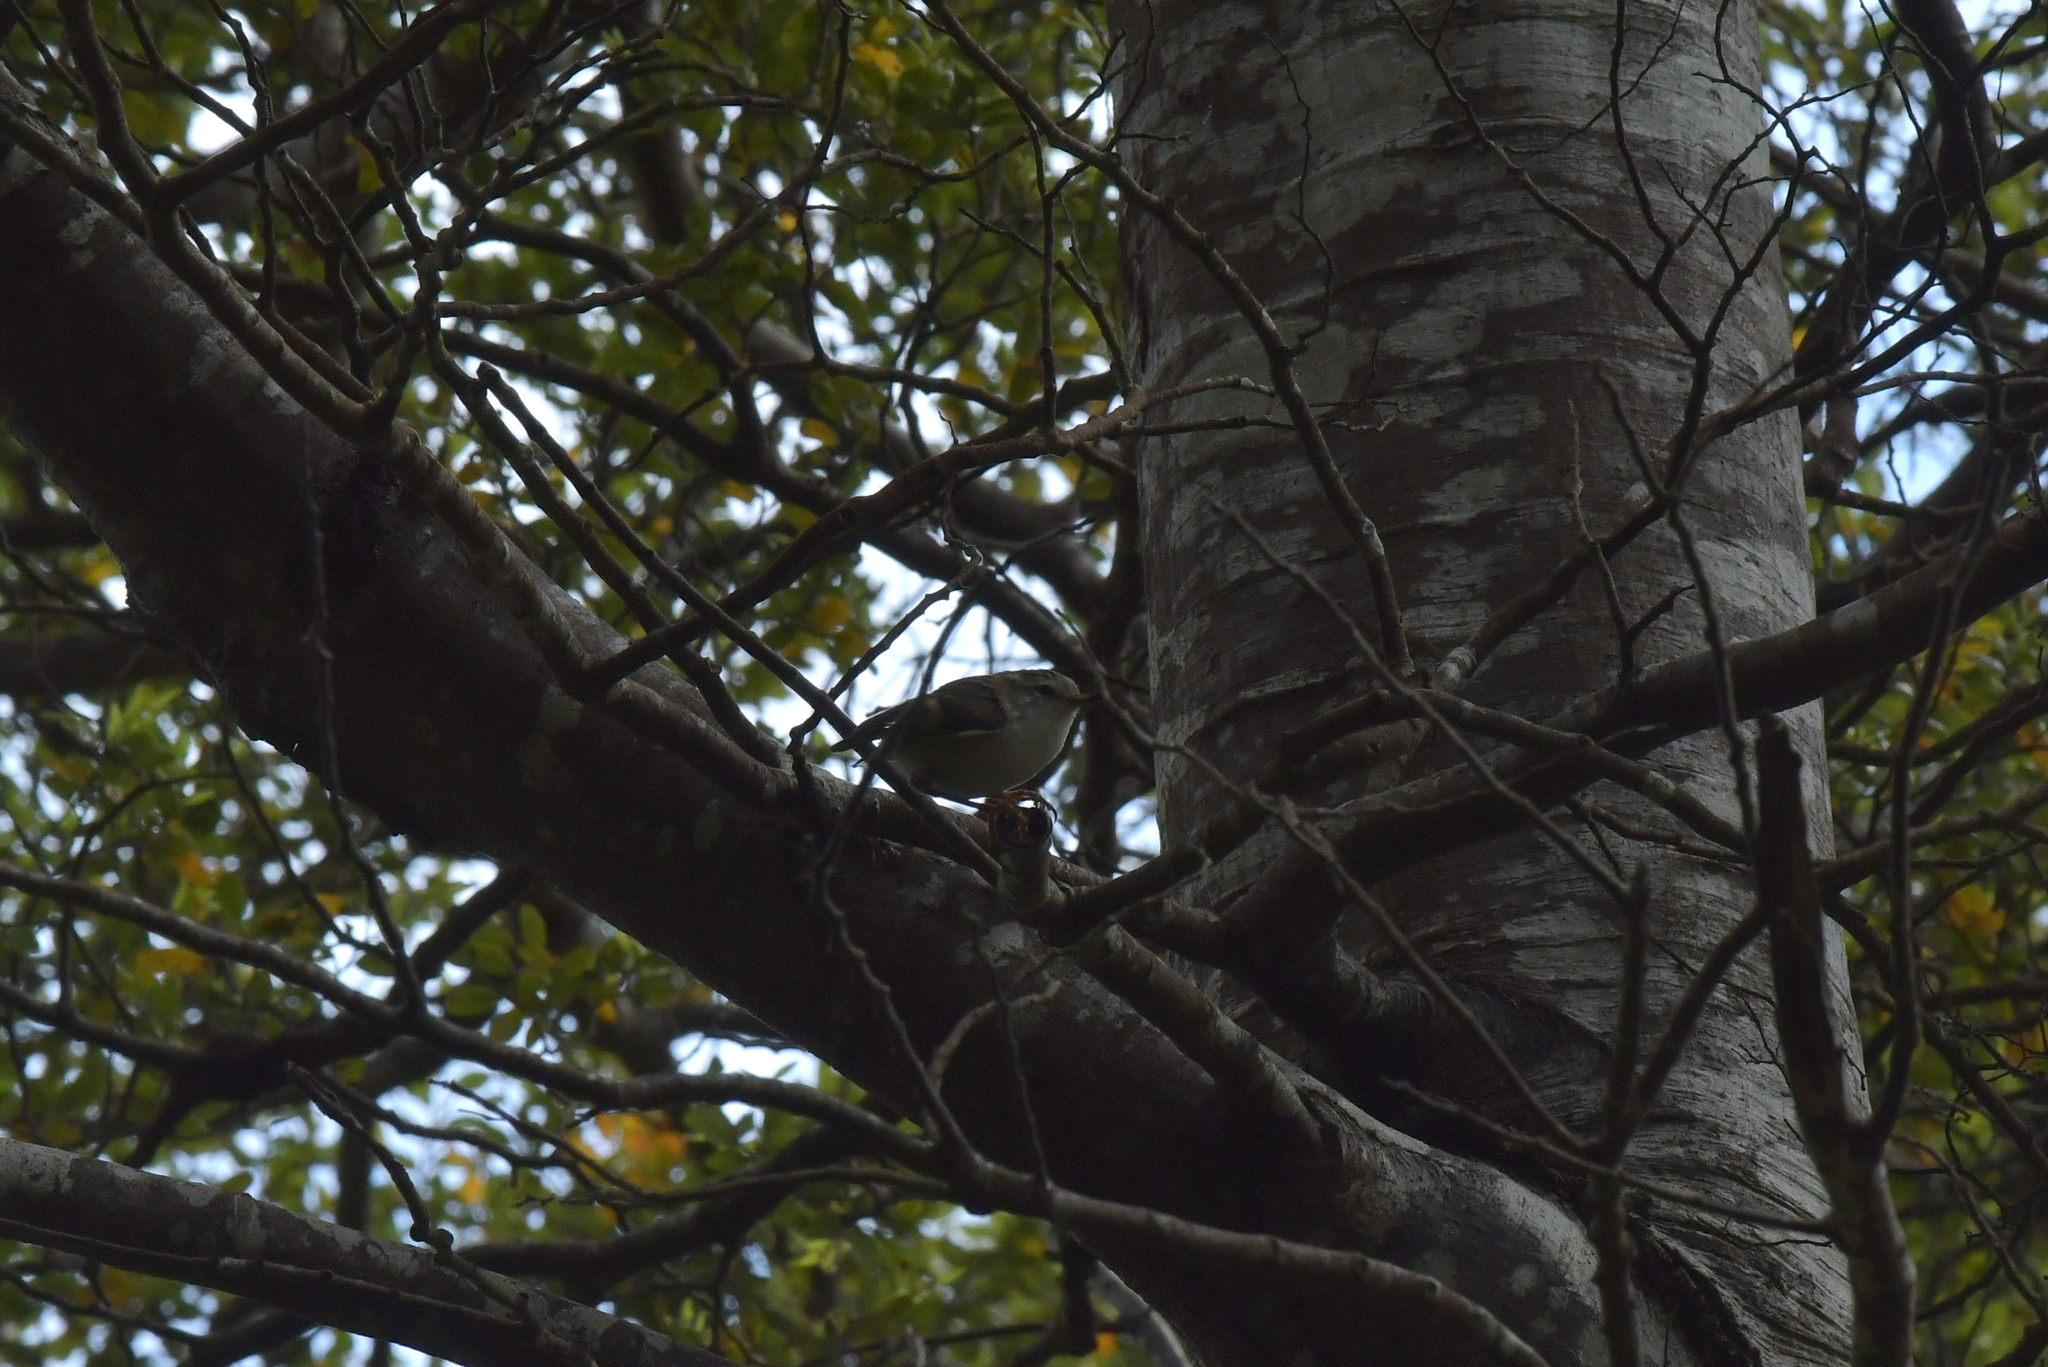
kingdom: Animalia
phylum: Chordata
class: Aves
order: Passeriformes
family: Acanthisittidae
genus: Acanthisitta
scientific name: Acanthisitta chloris
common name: Rifleman
